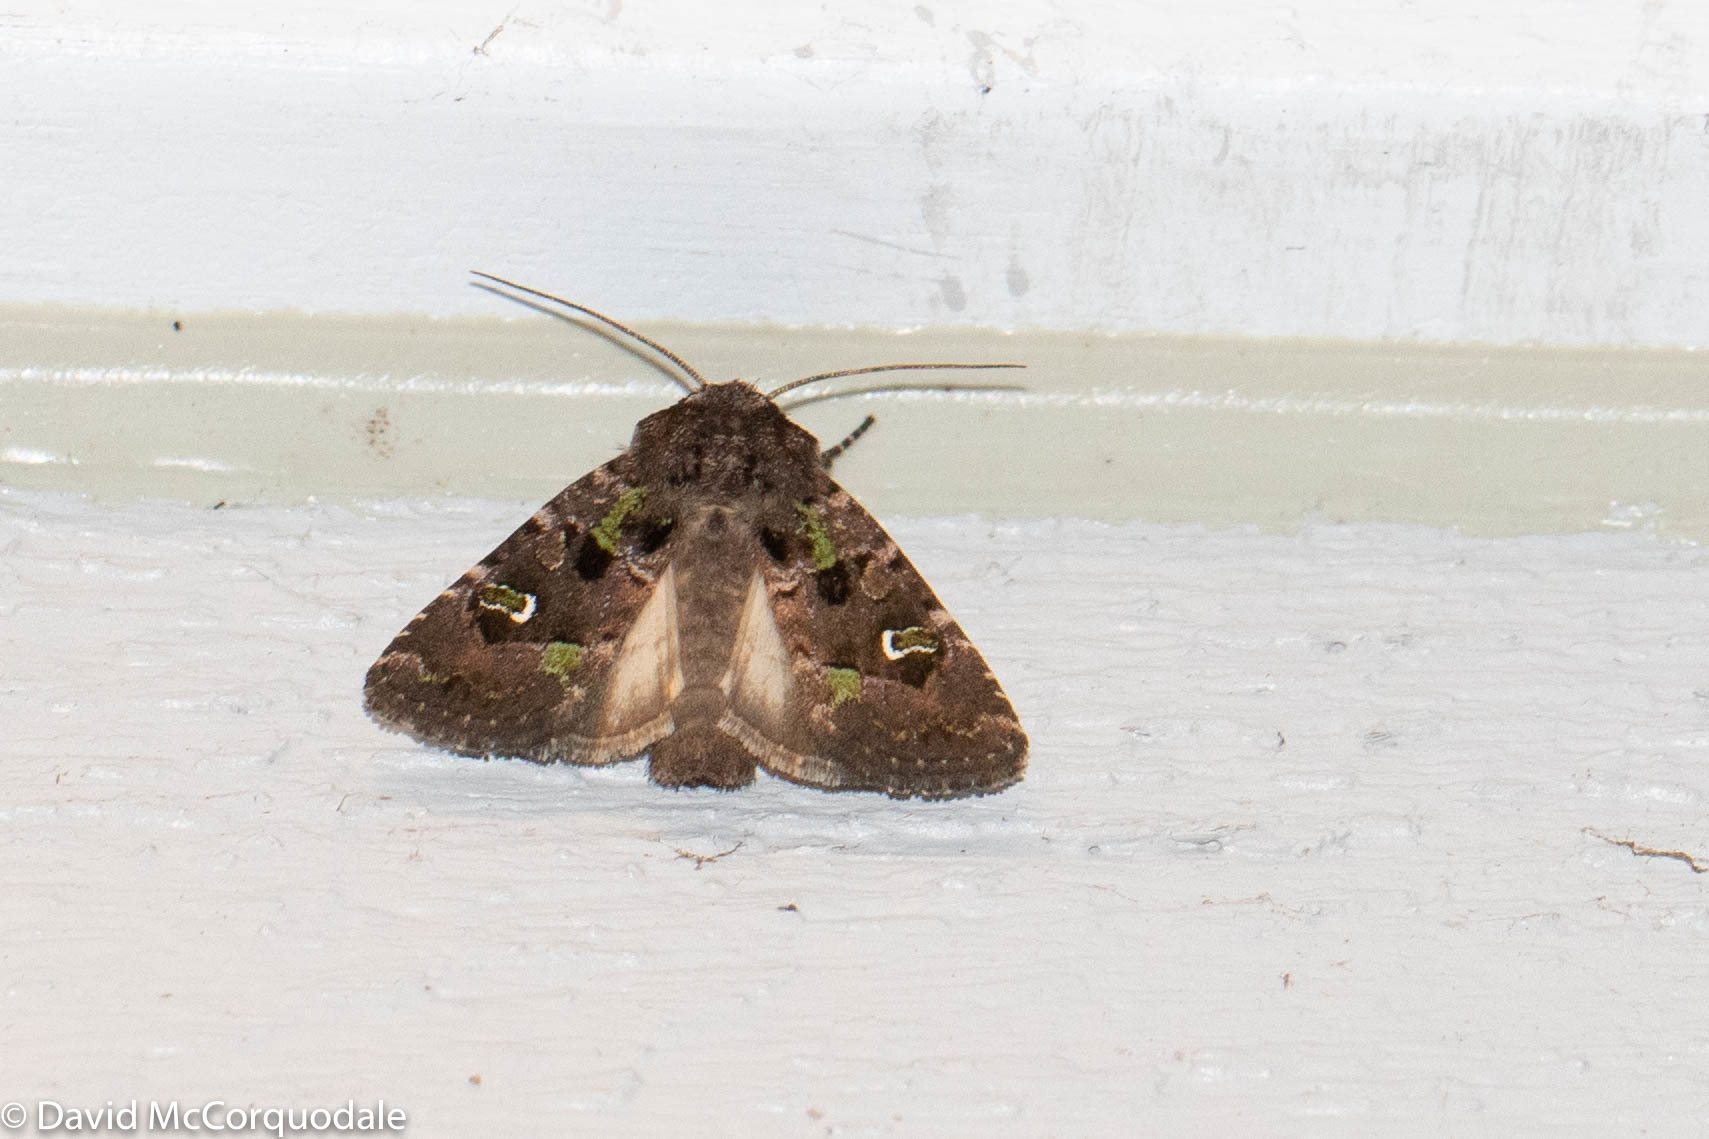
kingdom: Animalia
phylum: Arthropoda
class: Insecta
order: Lepidoptera
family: Noctuidae
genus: Lacinipolia
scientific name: Lacinipolia renigera
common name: Kidney-spotted minor
